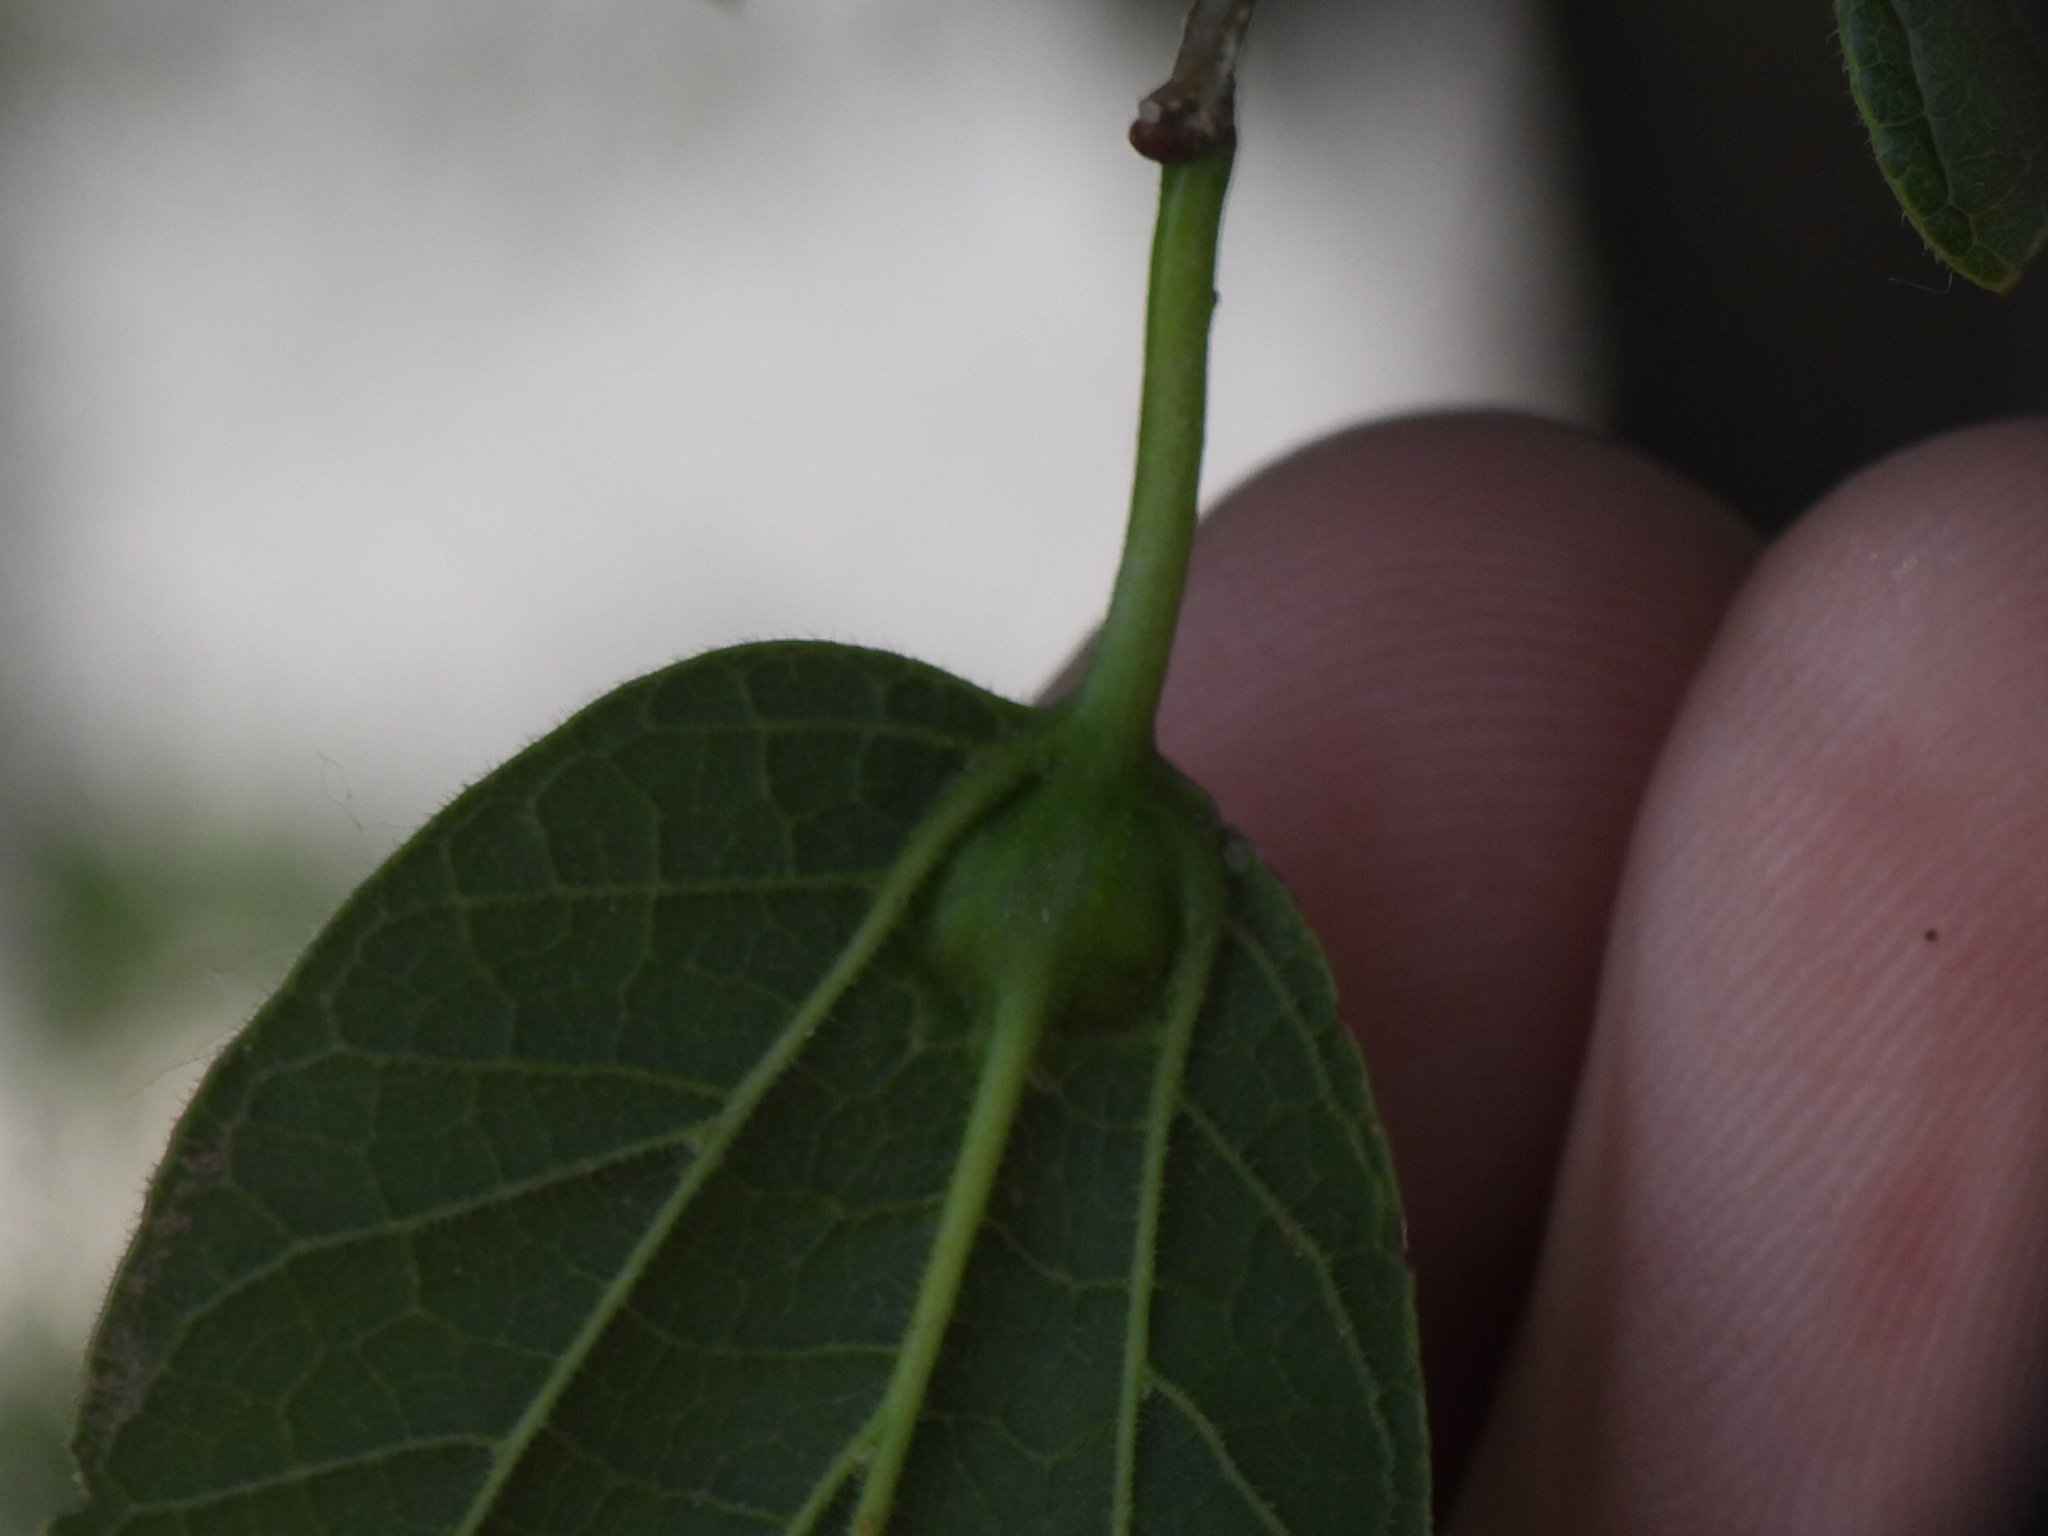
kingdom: Animalia
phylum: Arthropoda
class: Insecta
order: Diptera
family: Cecidomyiidae
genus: Celticecis
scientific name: Celticecis connata
